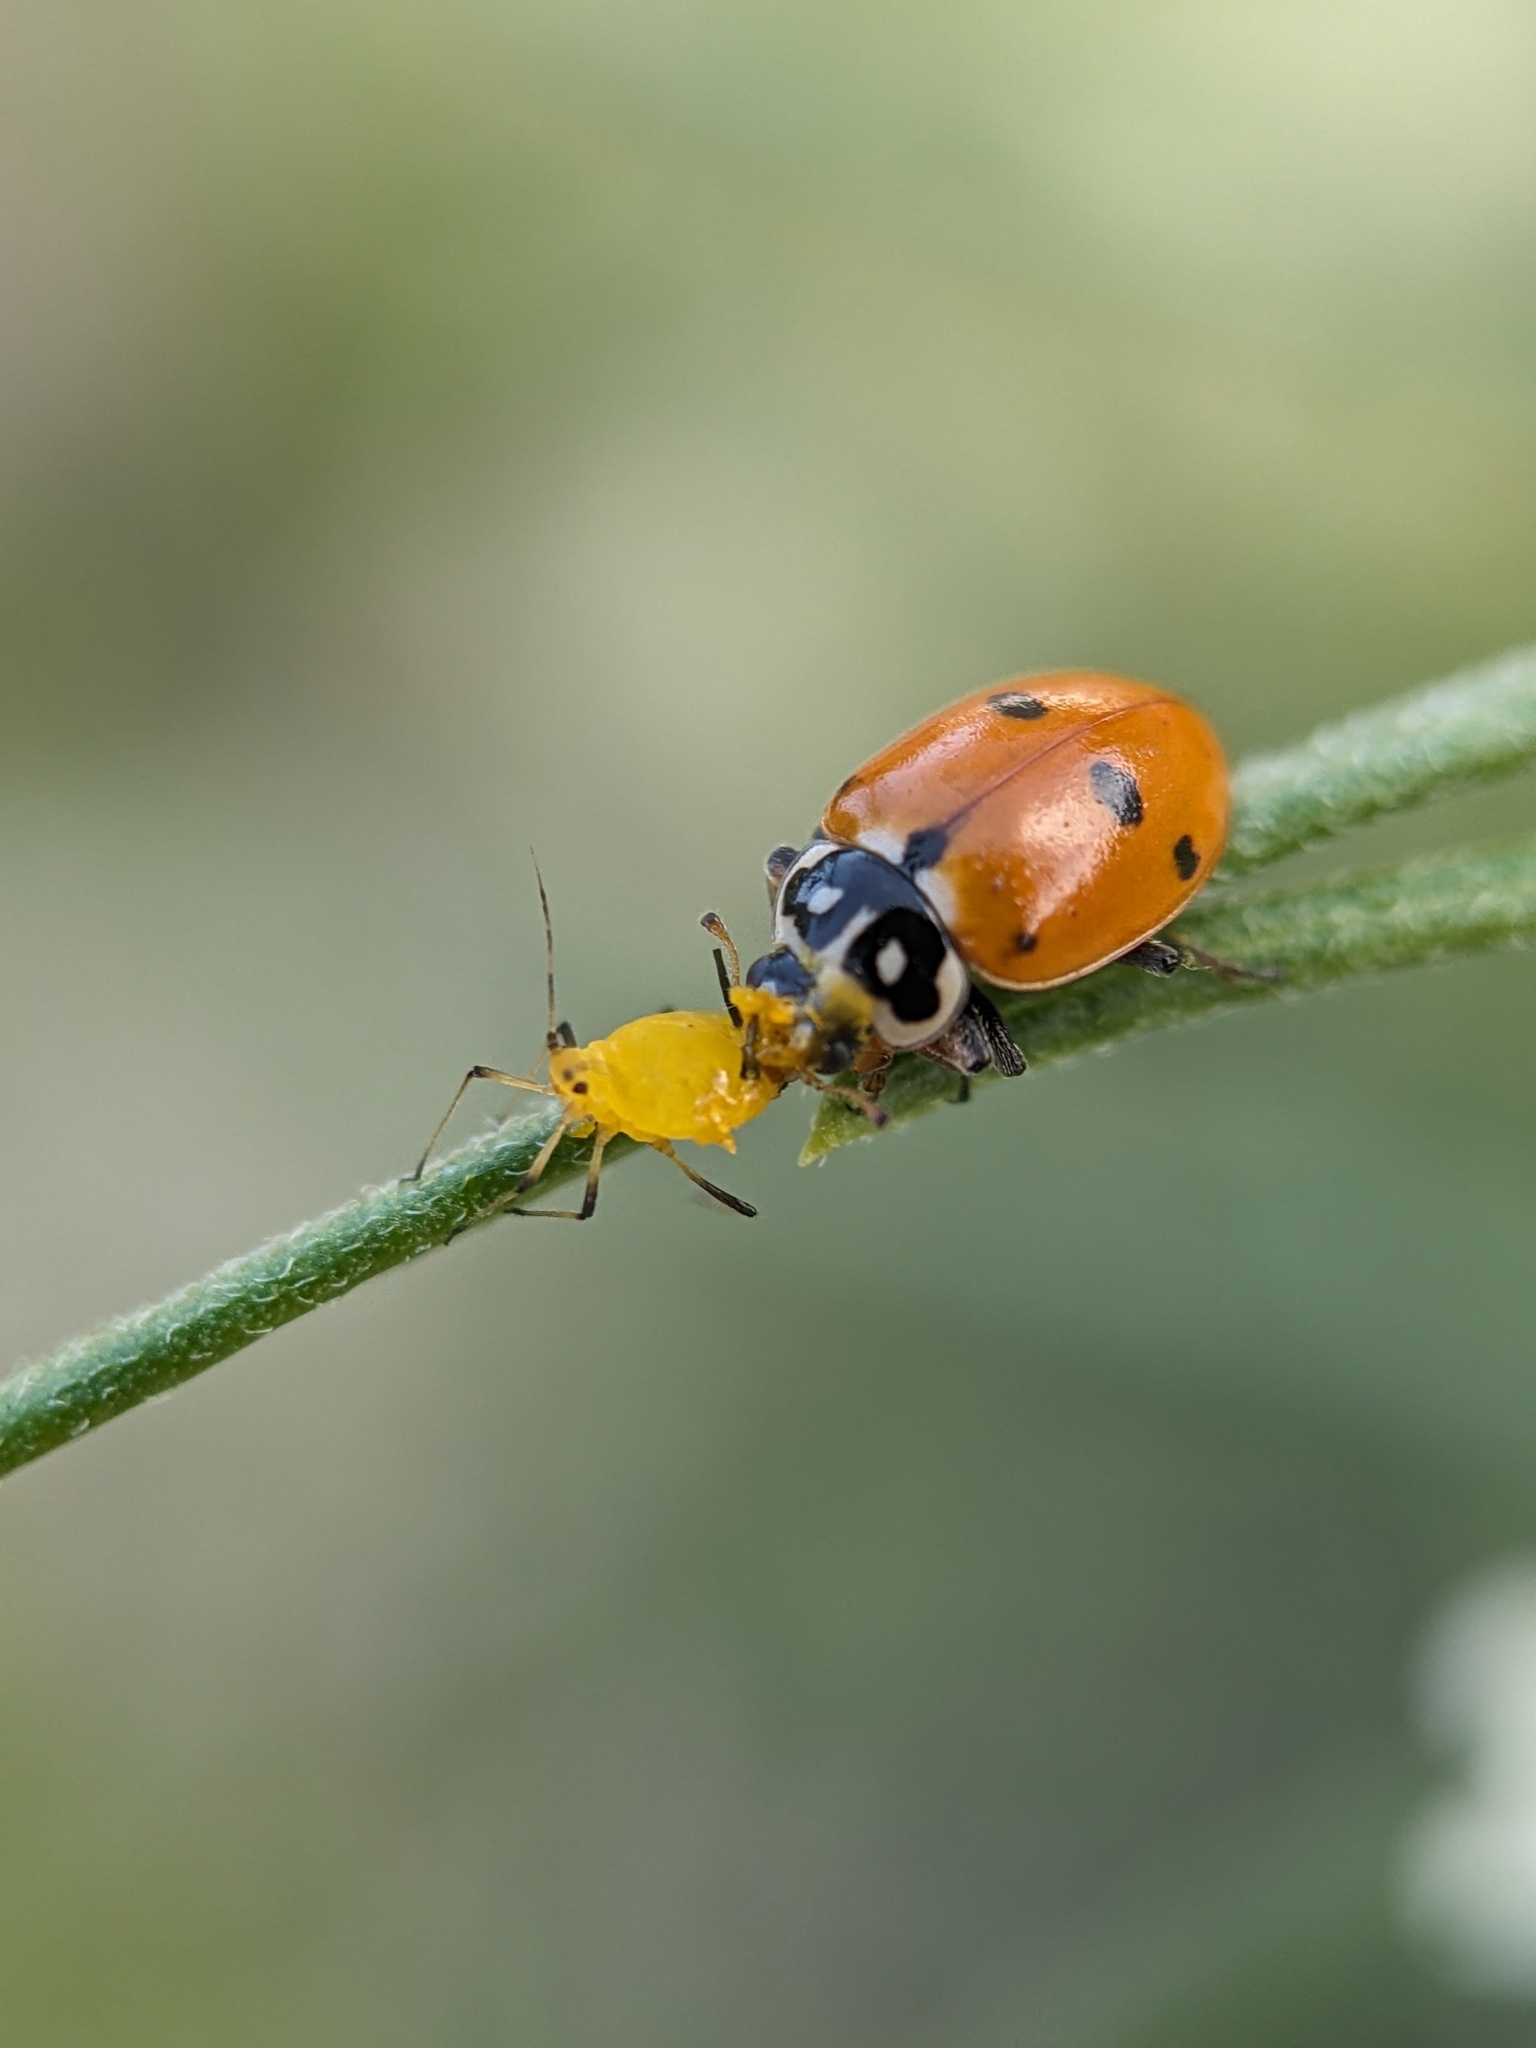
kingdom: Animalia
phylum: Arthropoda
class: Insecta
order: Coleoptera
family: Coccinellidae
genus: Hippodamia
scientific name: Hippodamia variegata
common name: Ladybird beetle
